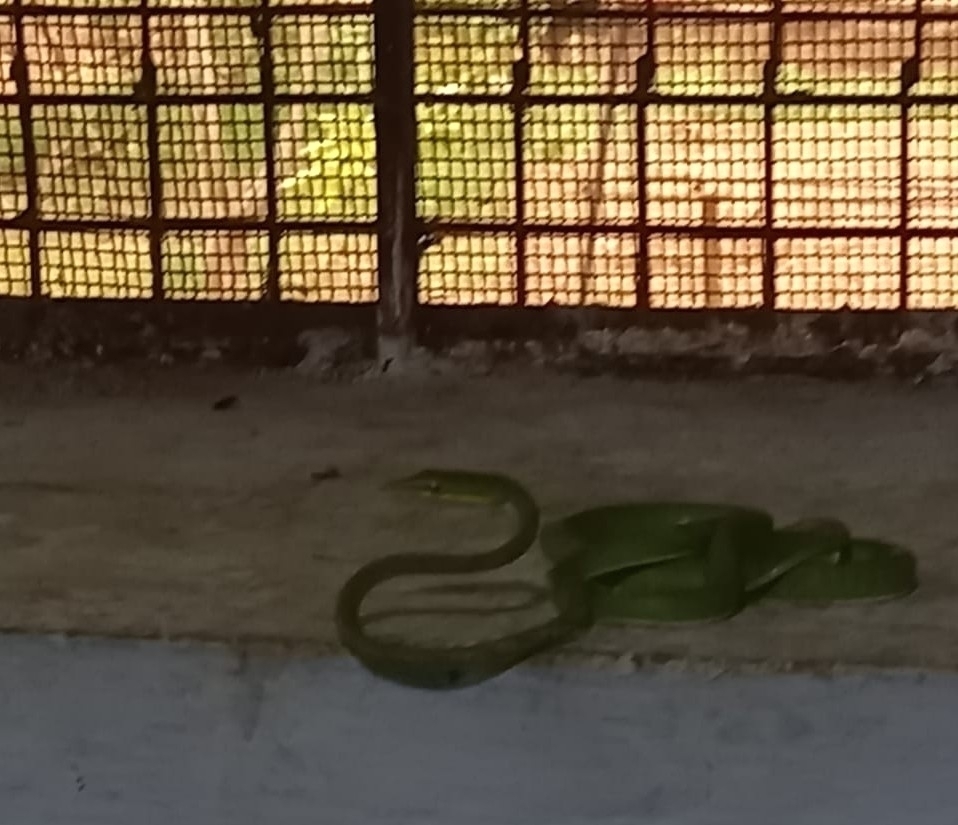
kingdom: Animalia
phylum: Chordata
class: Squamata
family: Colubridae
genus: Ahaetulla
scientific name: Ahaetulla oxyrhyncha
